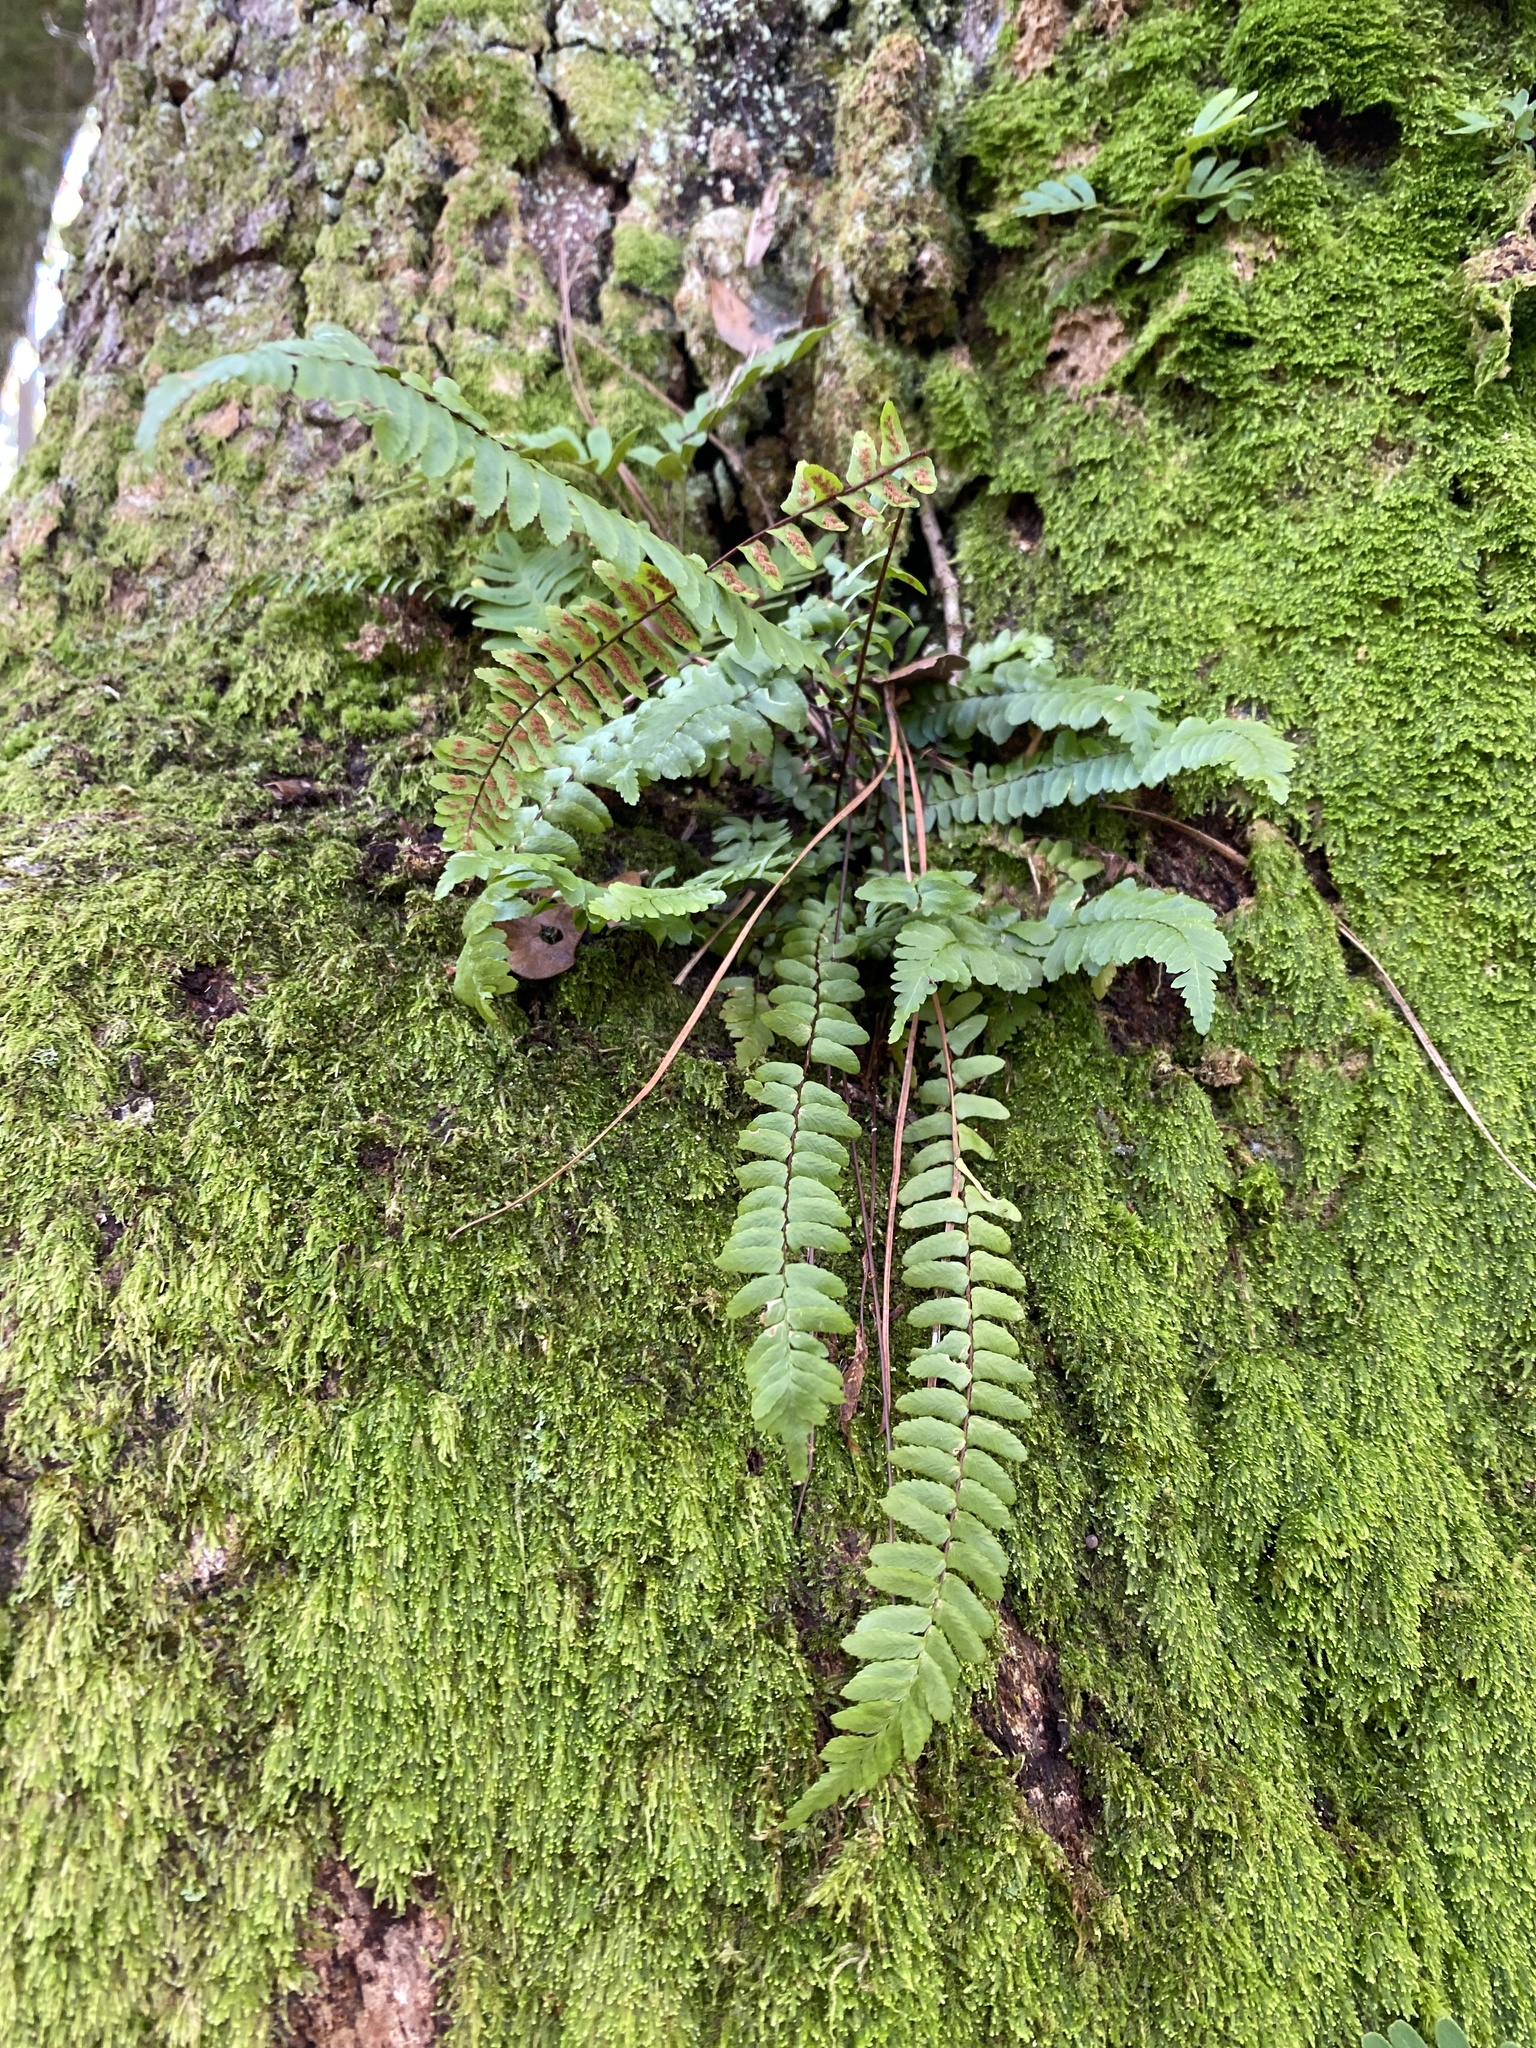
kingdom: Plantae
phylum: Tracheophyta
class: Polypodiopsida
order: Polypodiales
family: Aspleniaceae
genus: Asplenium
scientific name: Asplenium platyneuron
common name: Ebony spleenwort
